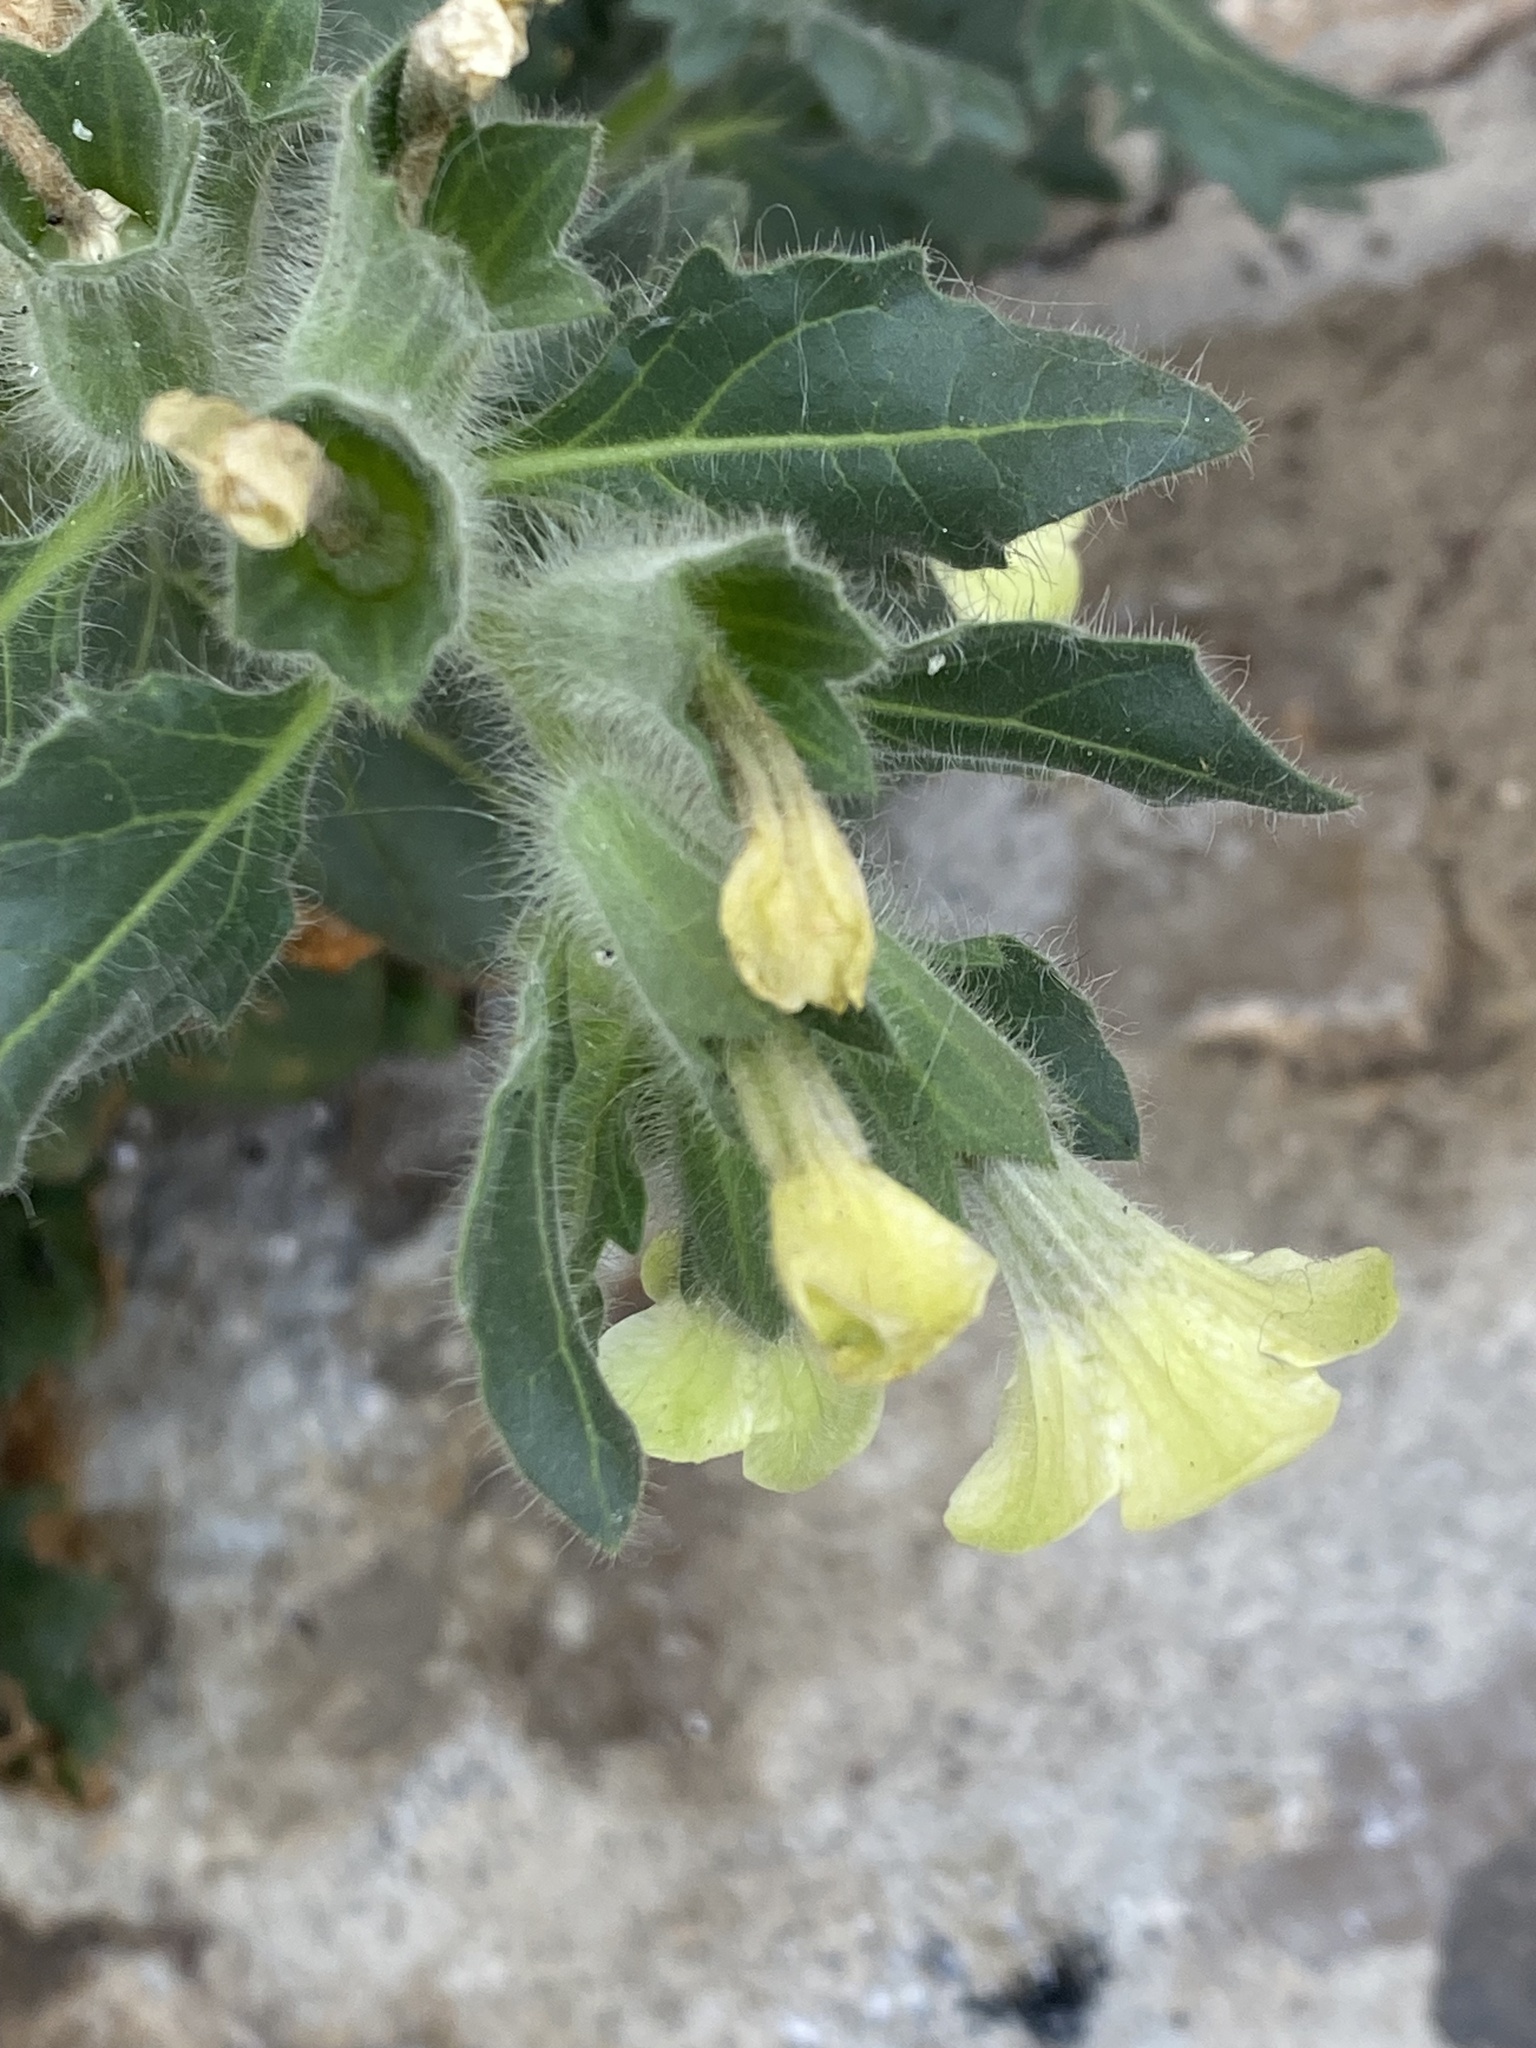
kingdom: Plantae
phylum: Tracheophyta
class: Magnoliopsida
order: Solanales
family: Solanaceae
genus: Hyoscyamus
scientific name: Hyoscyamus albus
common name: White henbane
